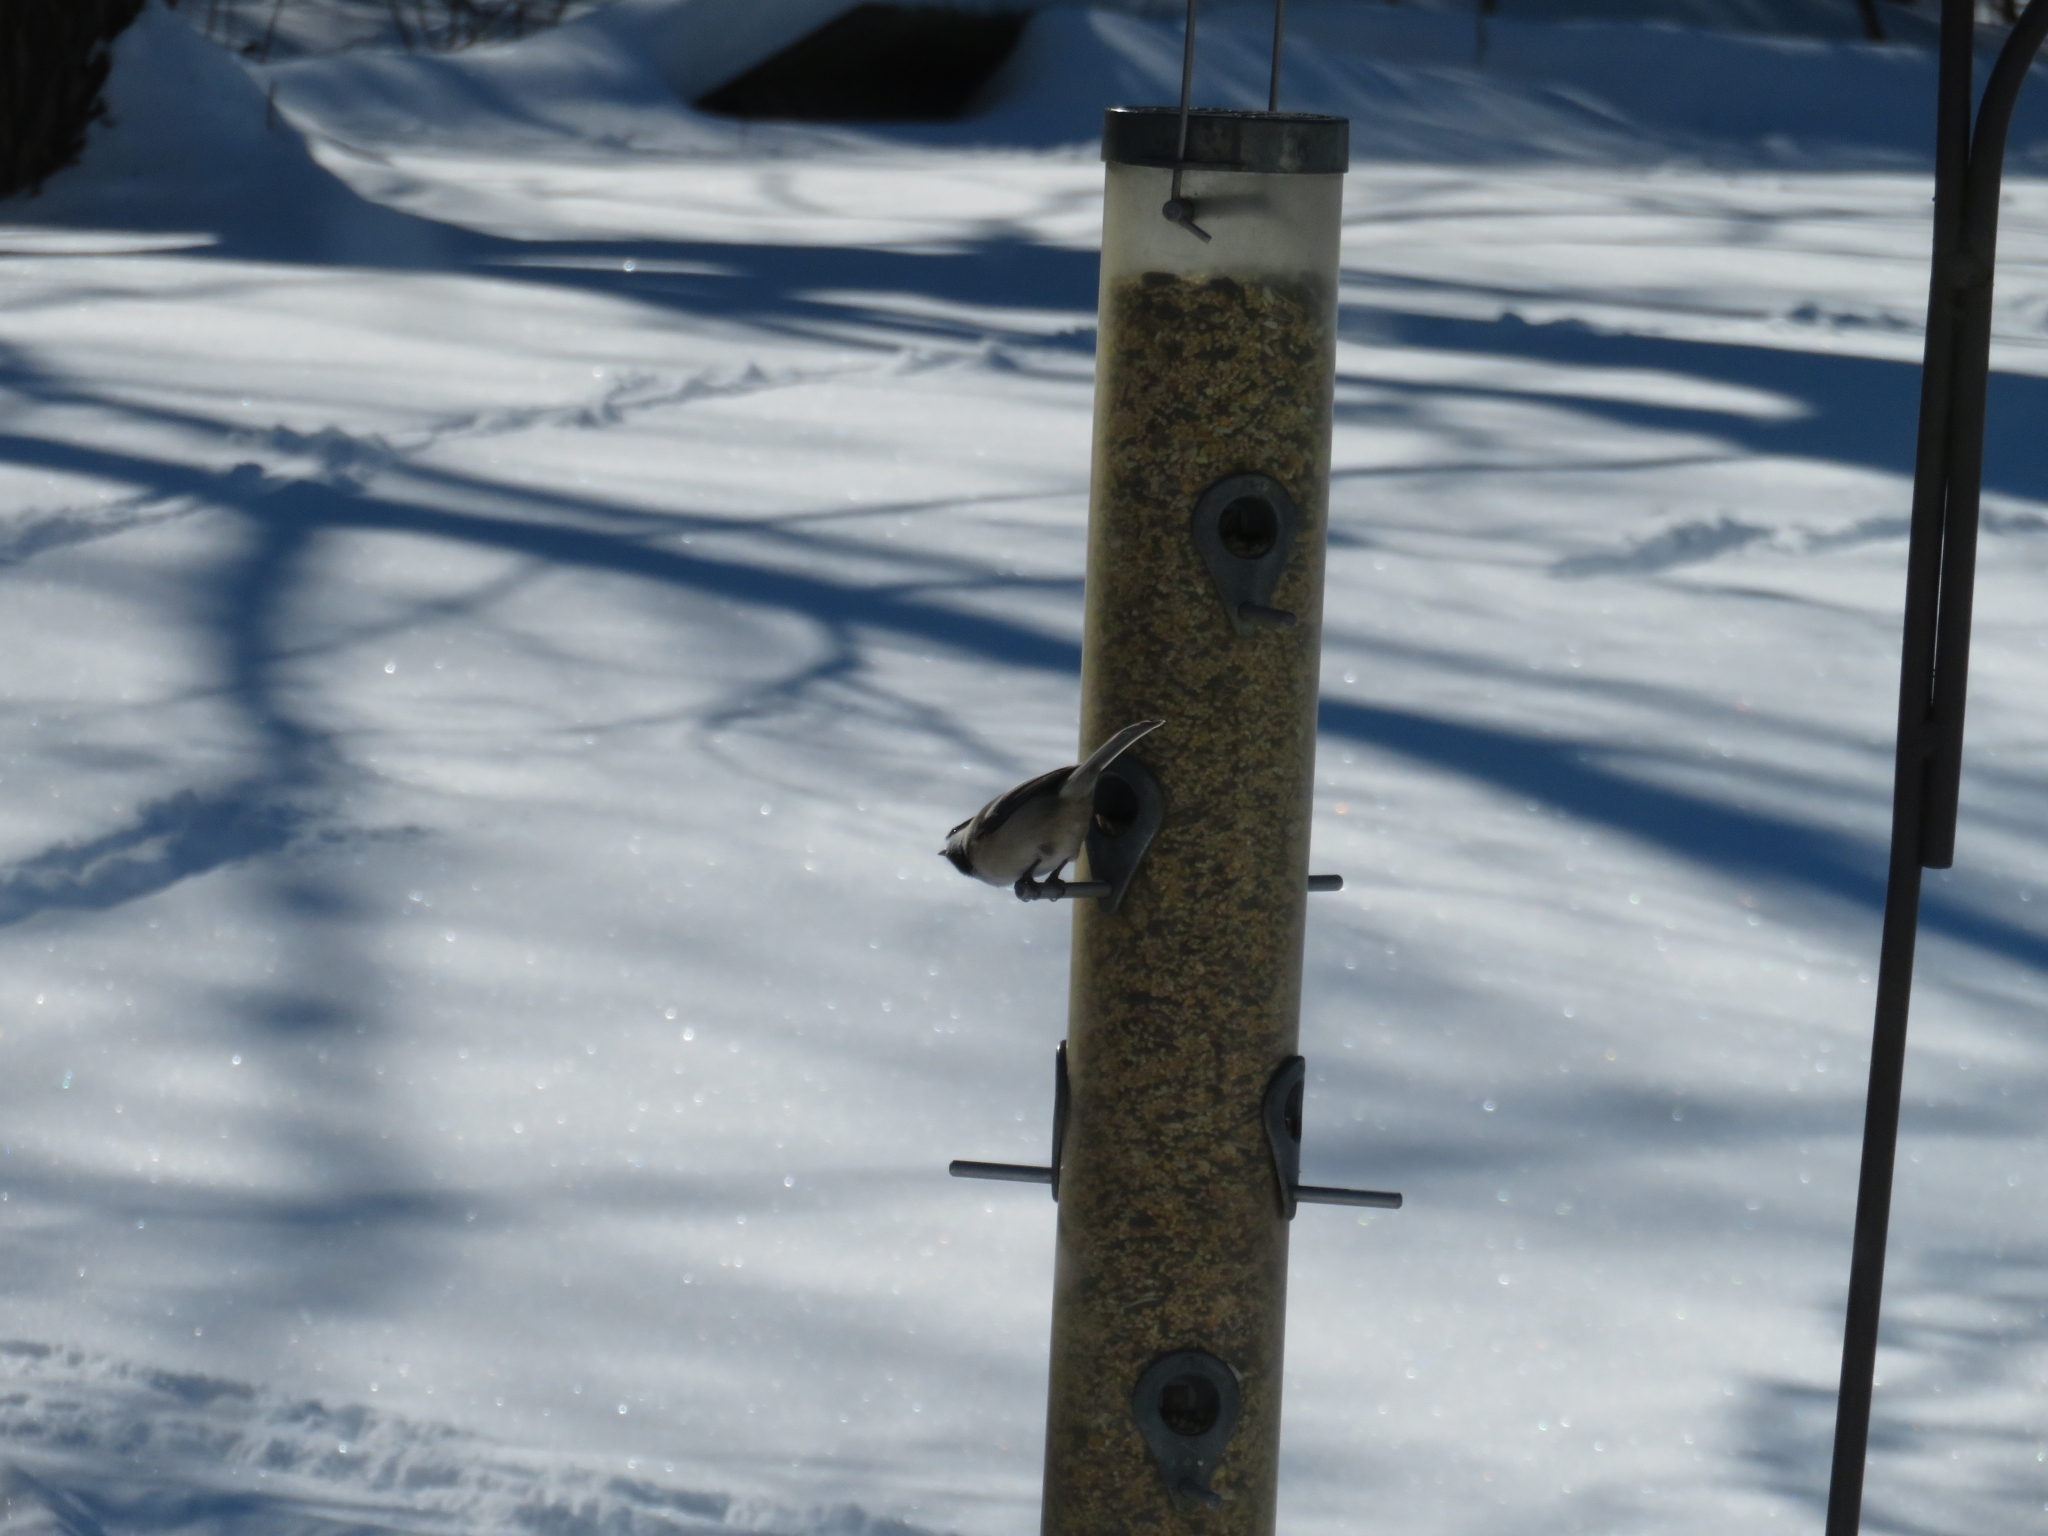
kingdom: Animalia
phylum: Chordata
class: Aves
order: Passeriformes
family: Paridae
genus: Poecile
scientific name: Poecile atricapillus
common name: Black-capped chickadee
